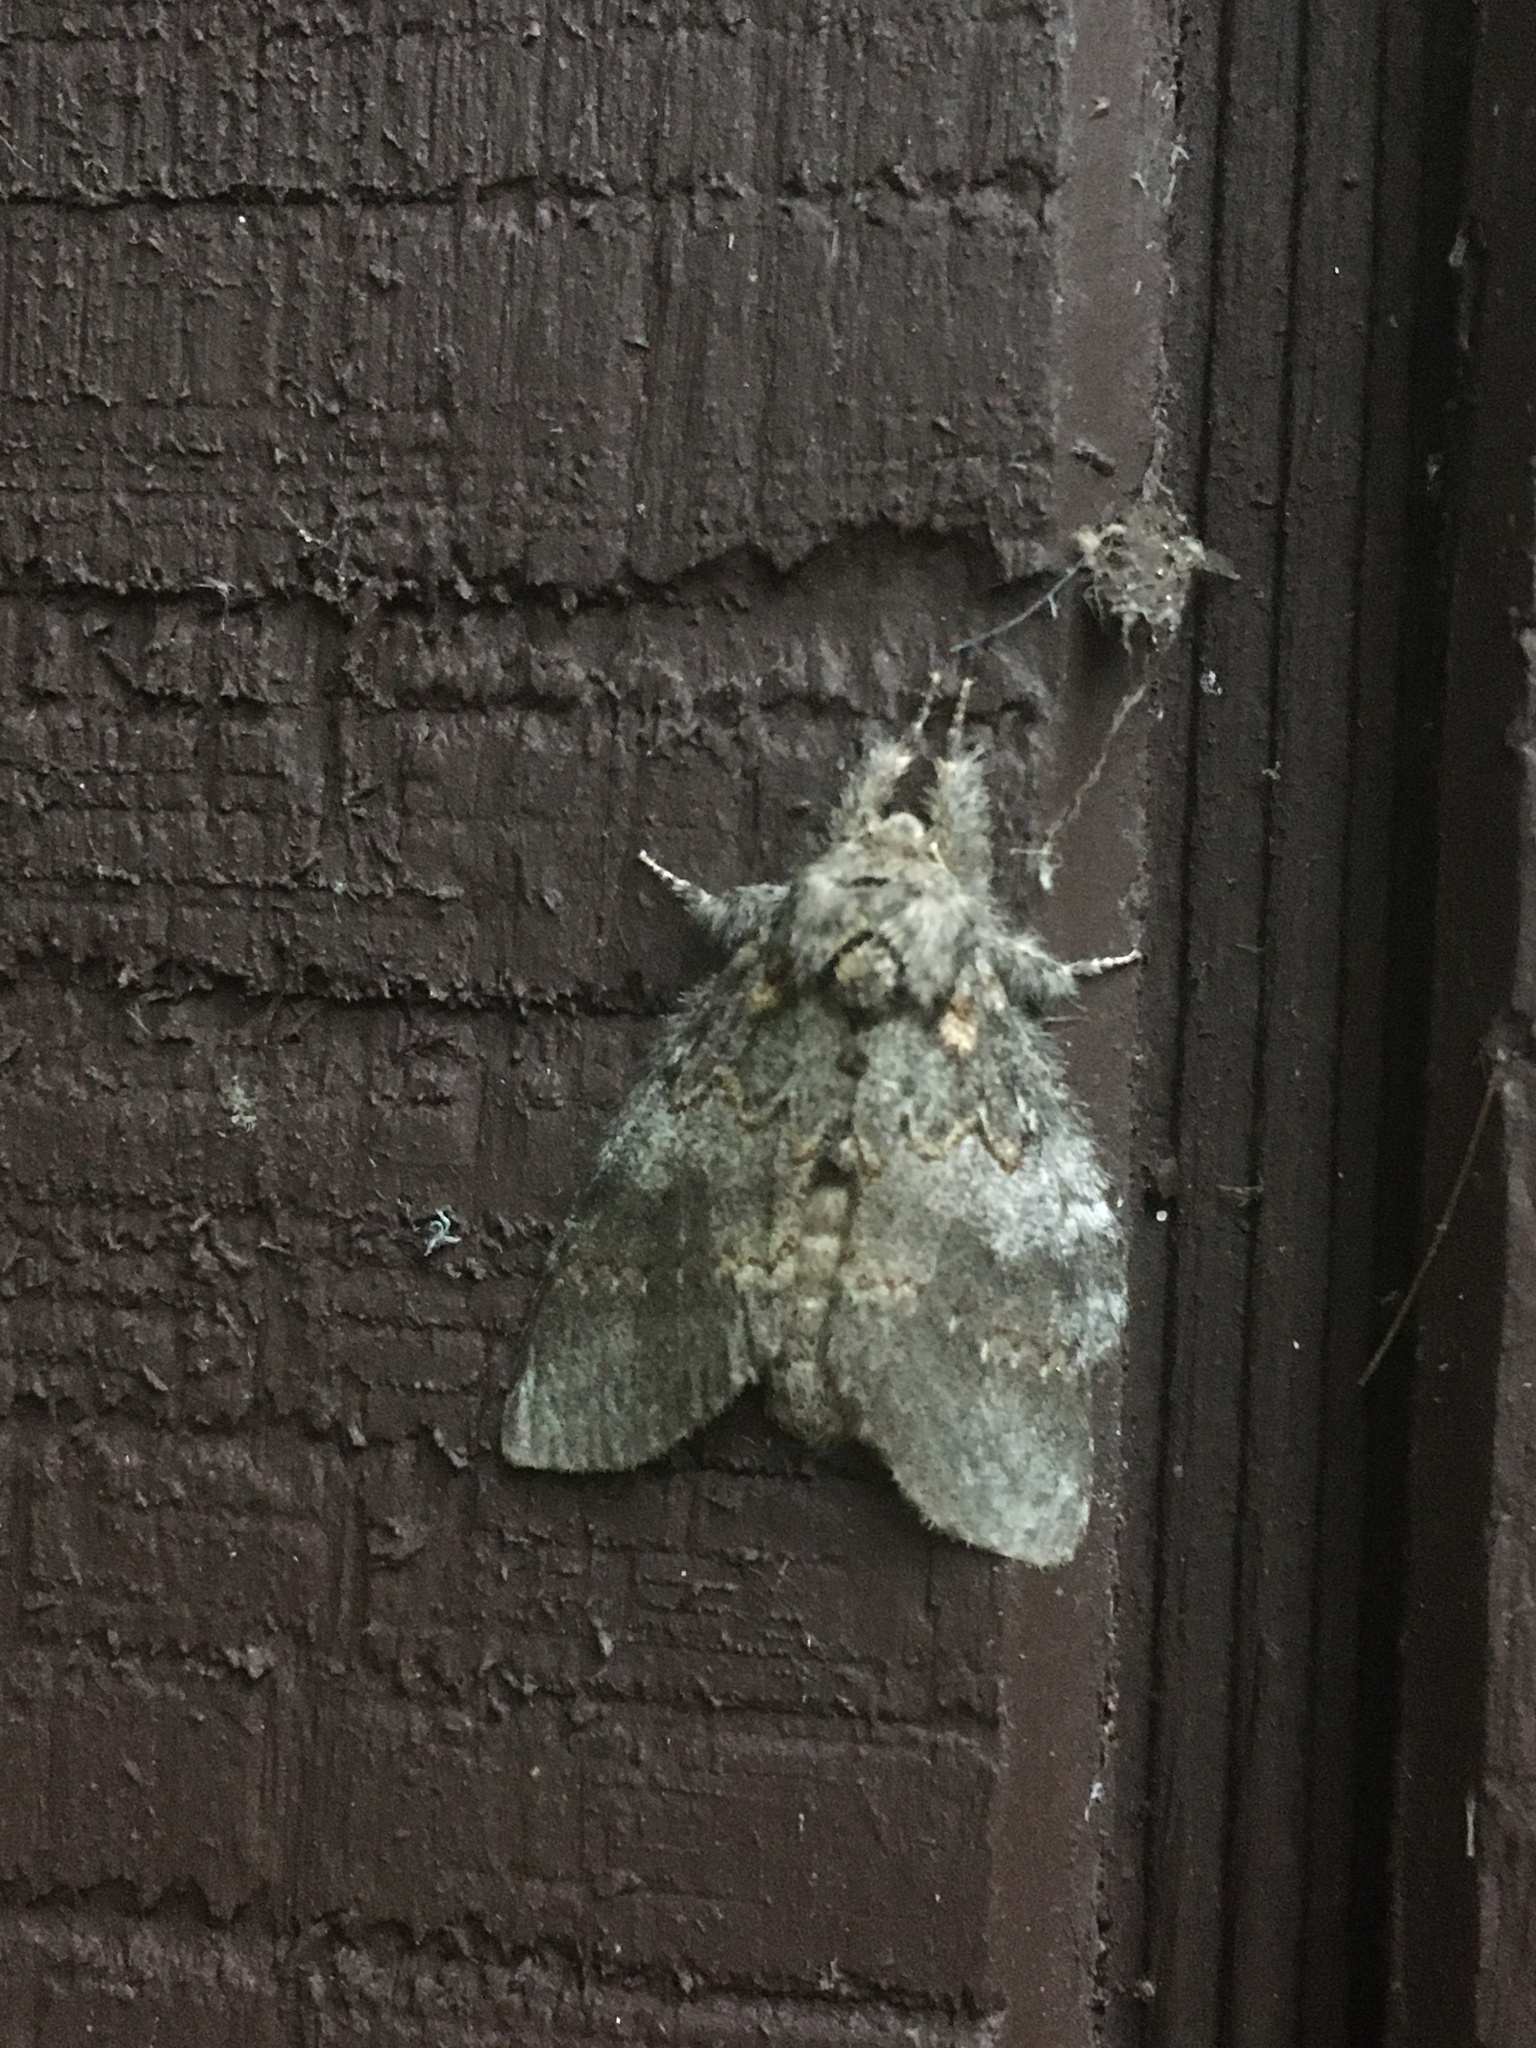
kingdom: Animalia
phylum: Arthropoda
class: Insecta
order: Lepidoptera
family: Notodontidae
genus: Peridea
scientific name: Peridea angulosa
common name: Angulose prominent
